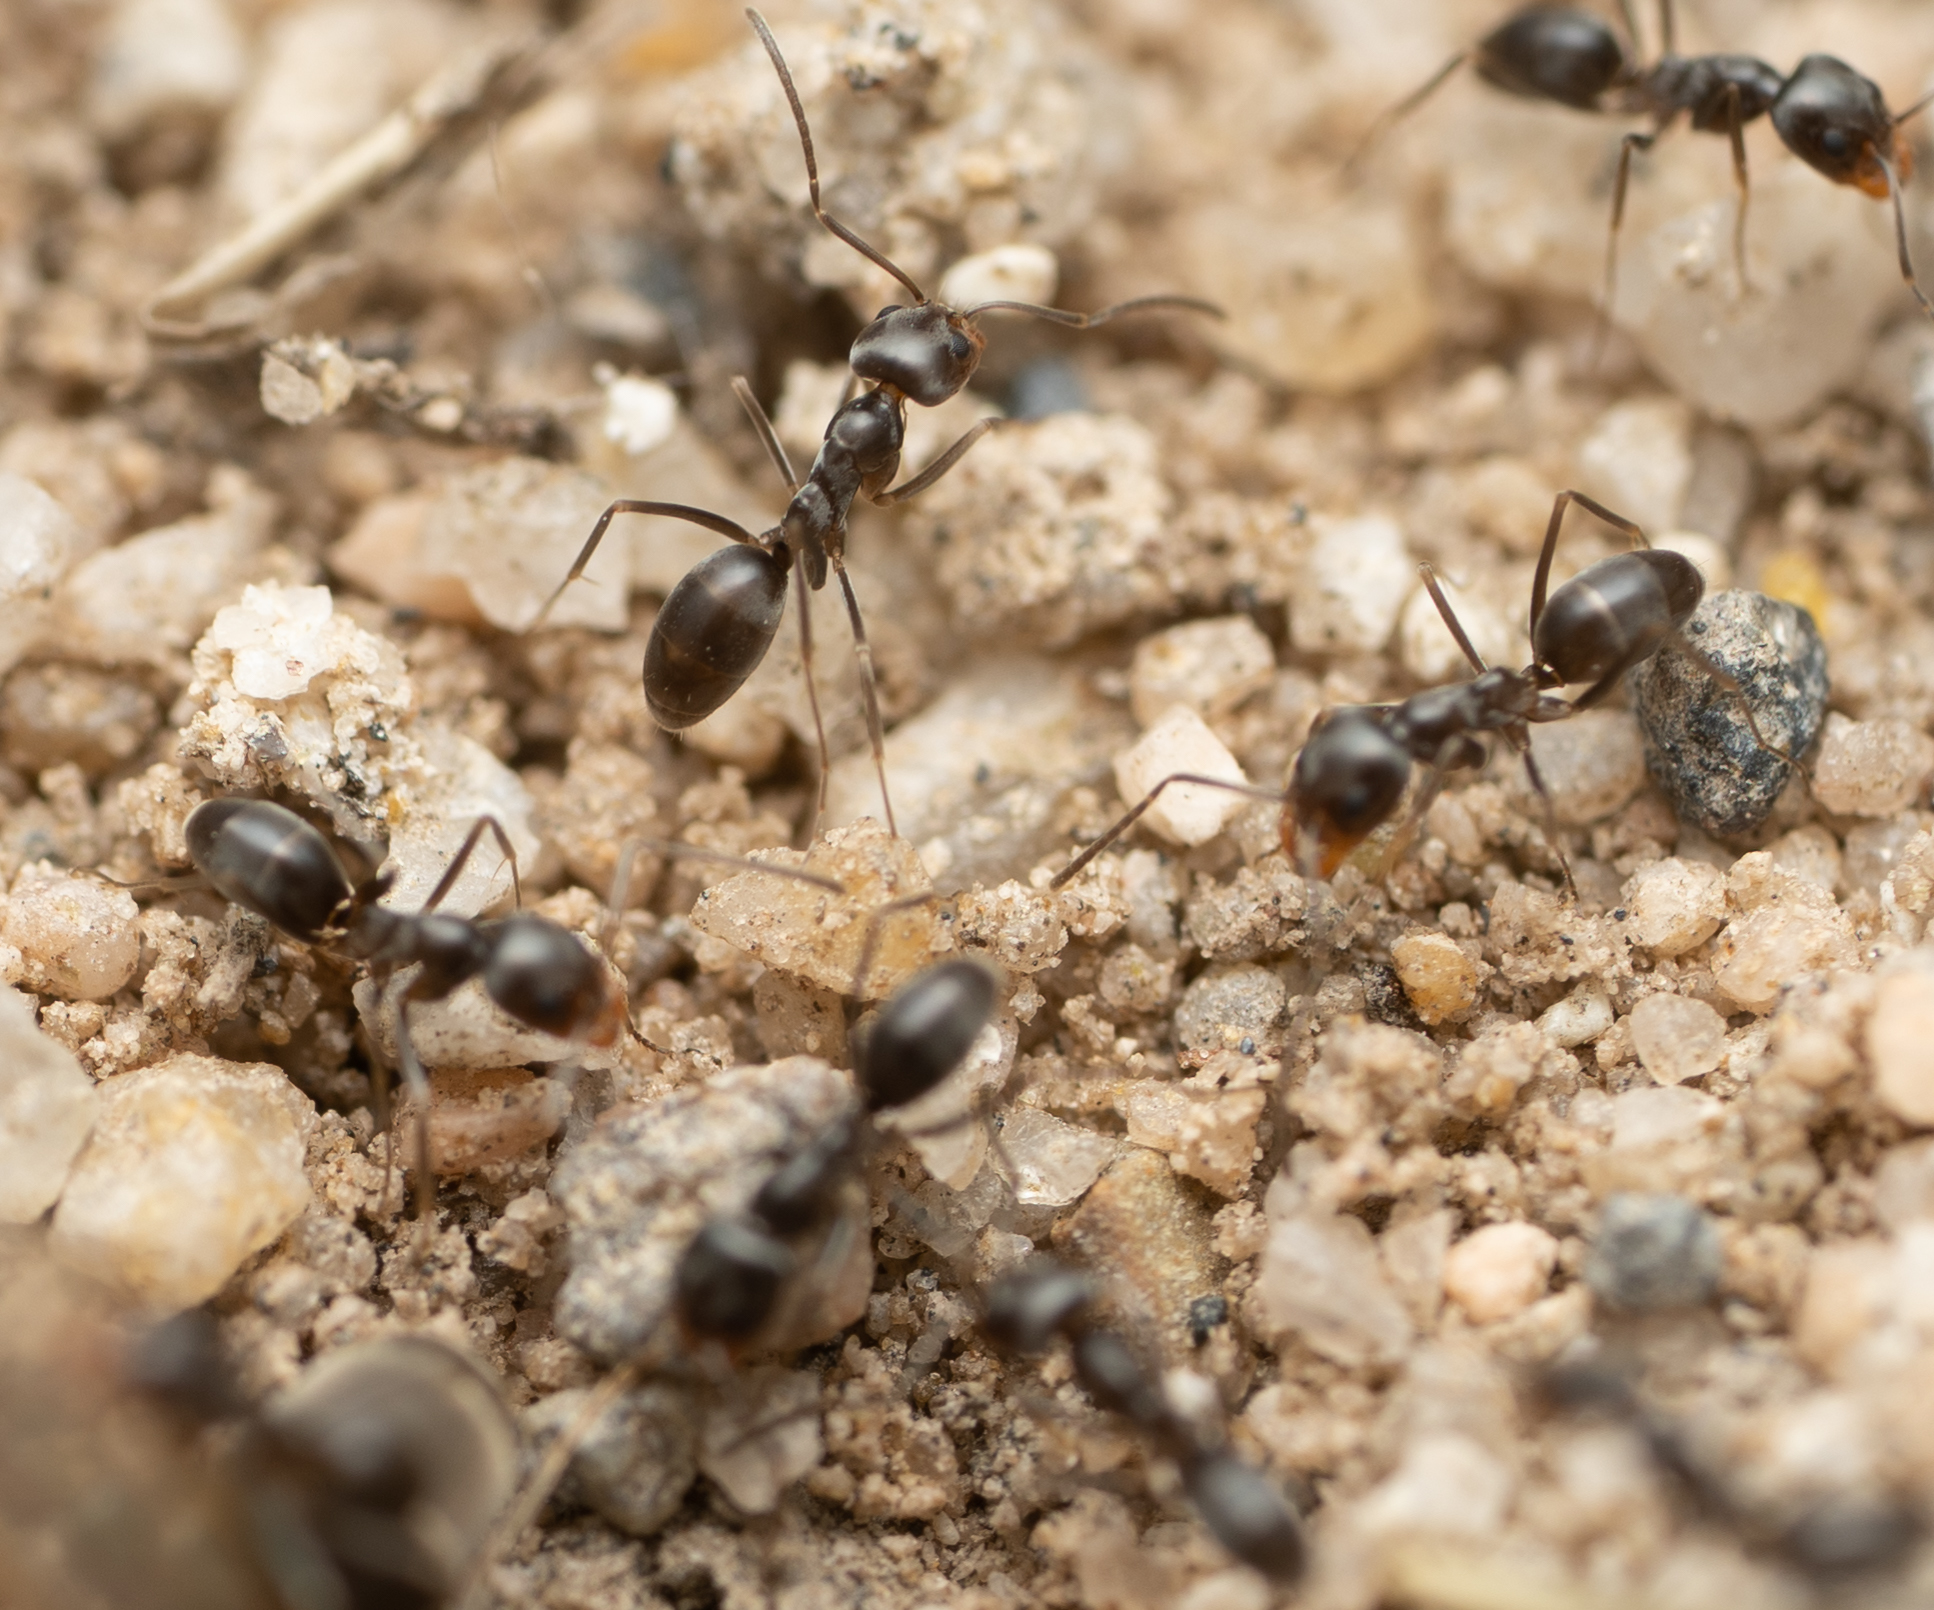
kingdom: Animalia
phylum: Arthropoda
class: Insecta
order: Hymenoptera
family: Formicidae
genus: Dorymyrmex
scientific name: Dorymyrmex insanus
